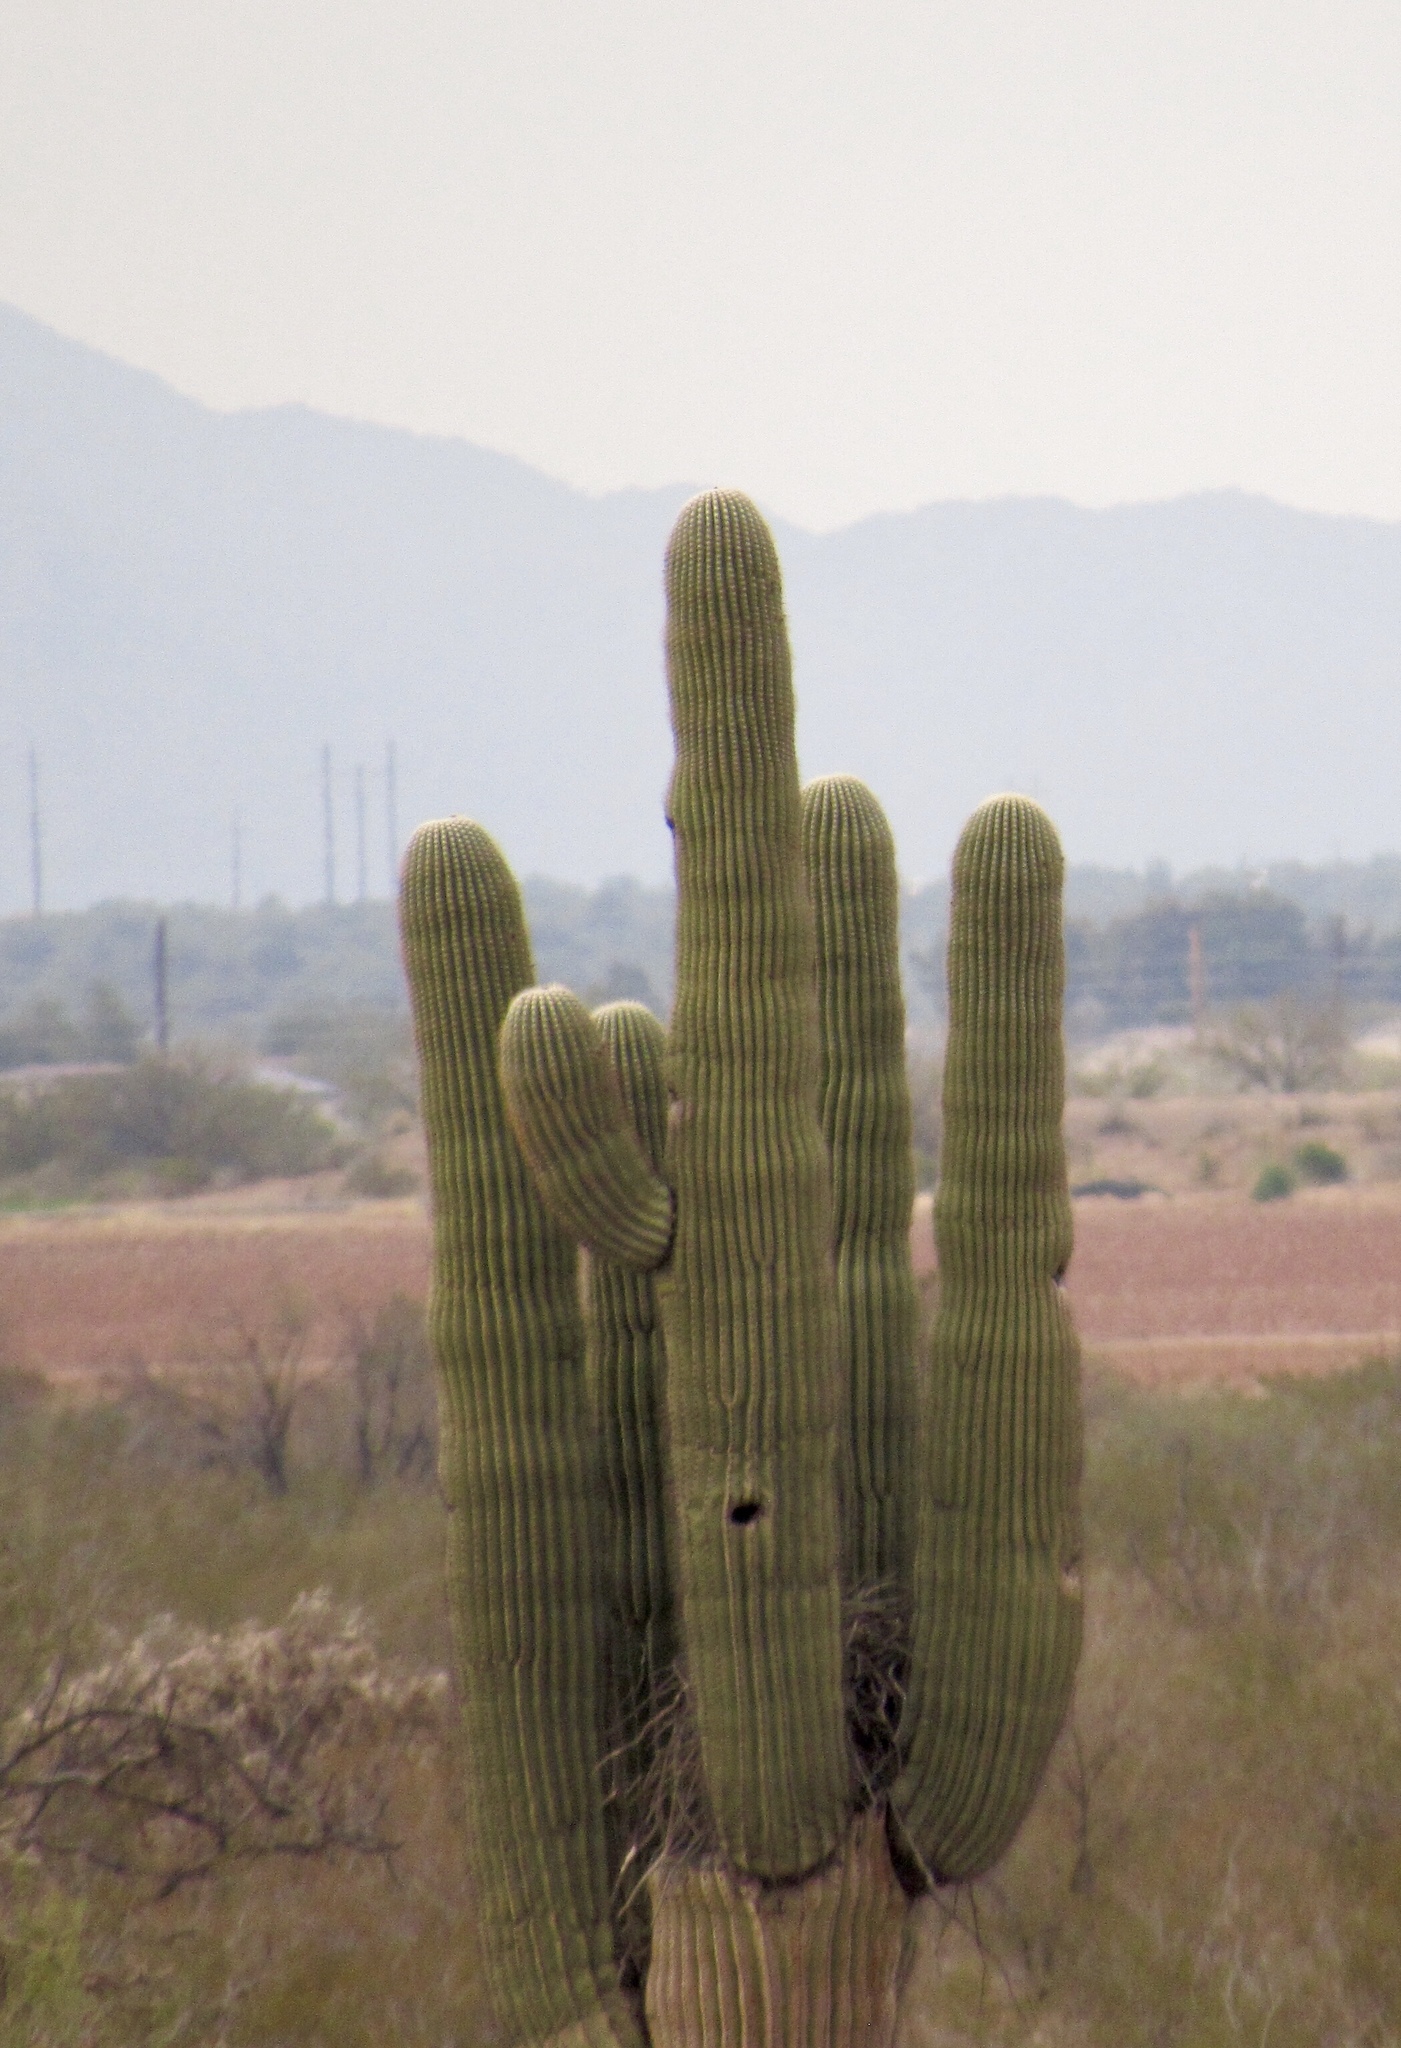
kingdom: Plantae
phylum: Tracheophyta
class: Magnoliopsida
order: Caryophyllales
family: Cactaceae
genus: Carnegiea
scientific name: Carnegiea gigantea
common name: Saguaro
